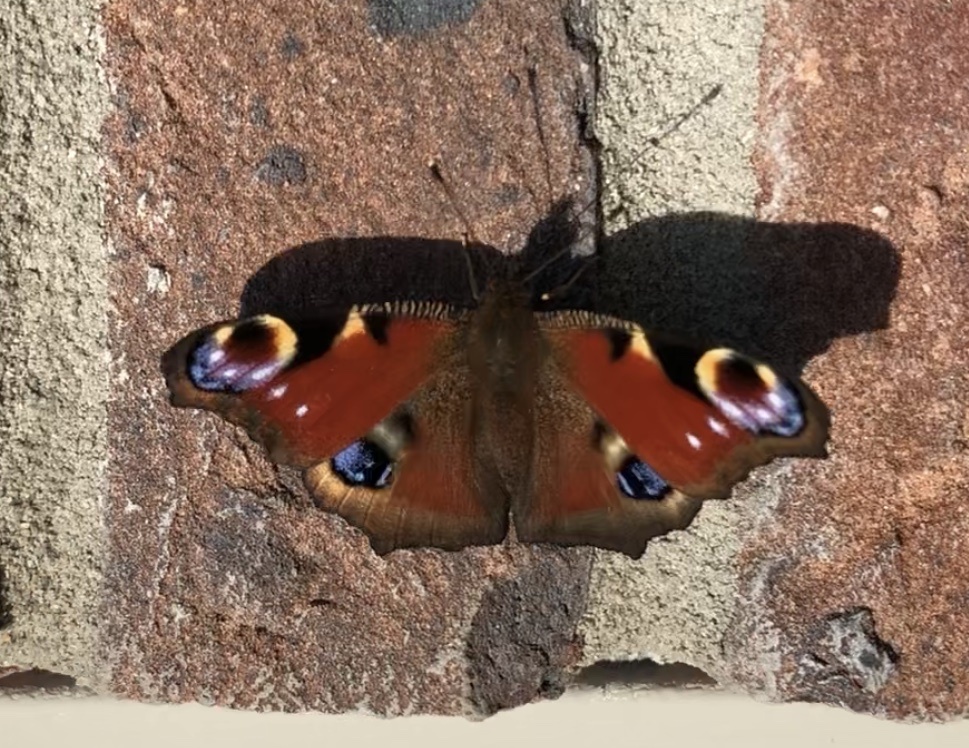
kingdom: Animalia
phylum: Arthropoda
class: Insecta
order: Lepidoptera
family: Nymphalidae
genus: Aglais
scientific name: Aglais io
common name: Peacock
